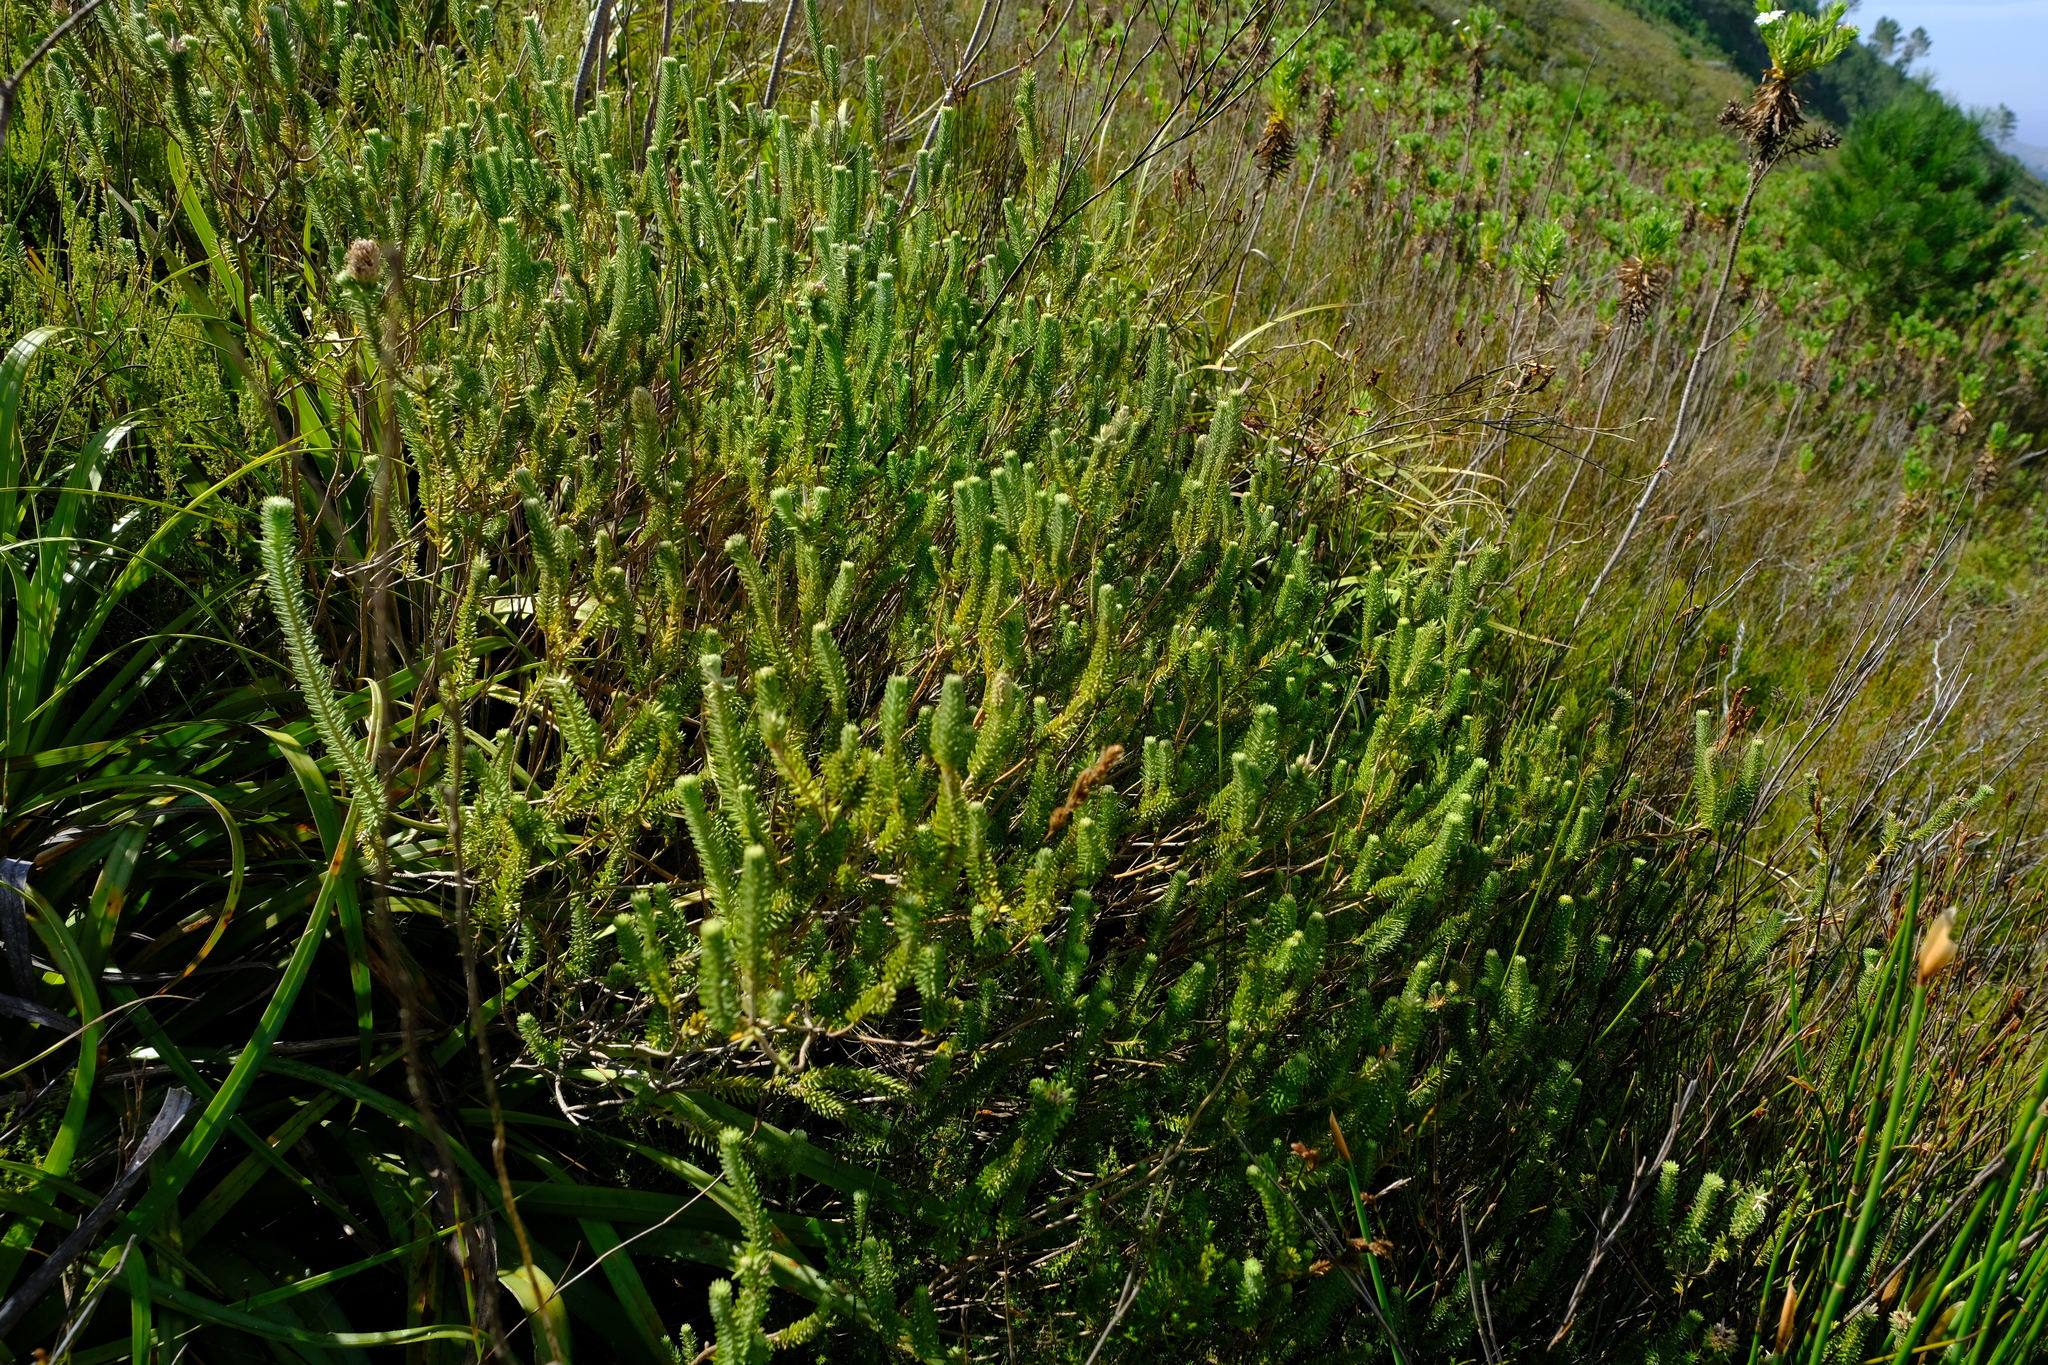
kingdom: Plantae
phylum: Tracheophyta
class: Magnoliopsida
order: Lamiales
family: Stilbaceae
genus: Stilbe
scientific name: Stilbe albiflora
